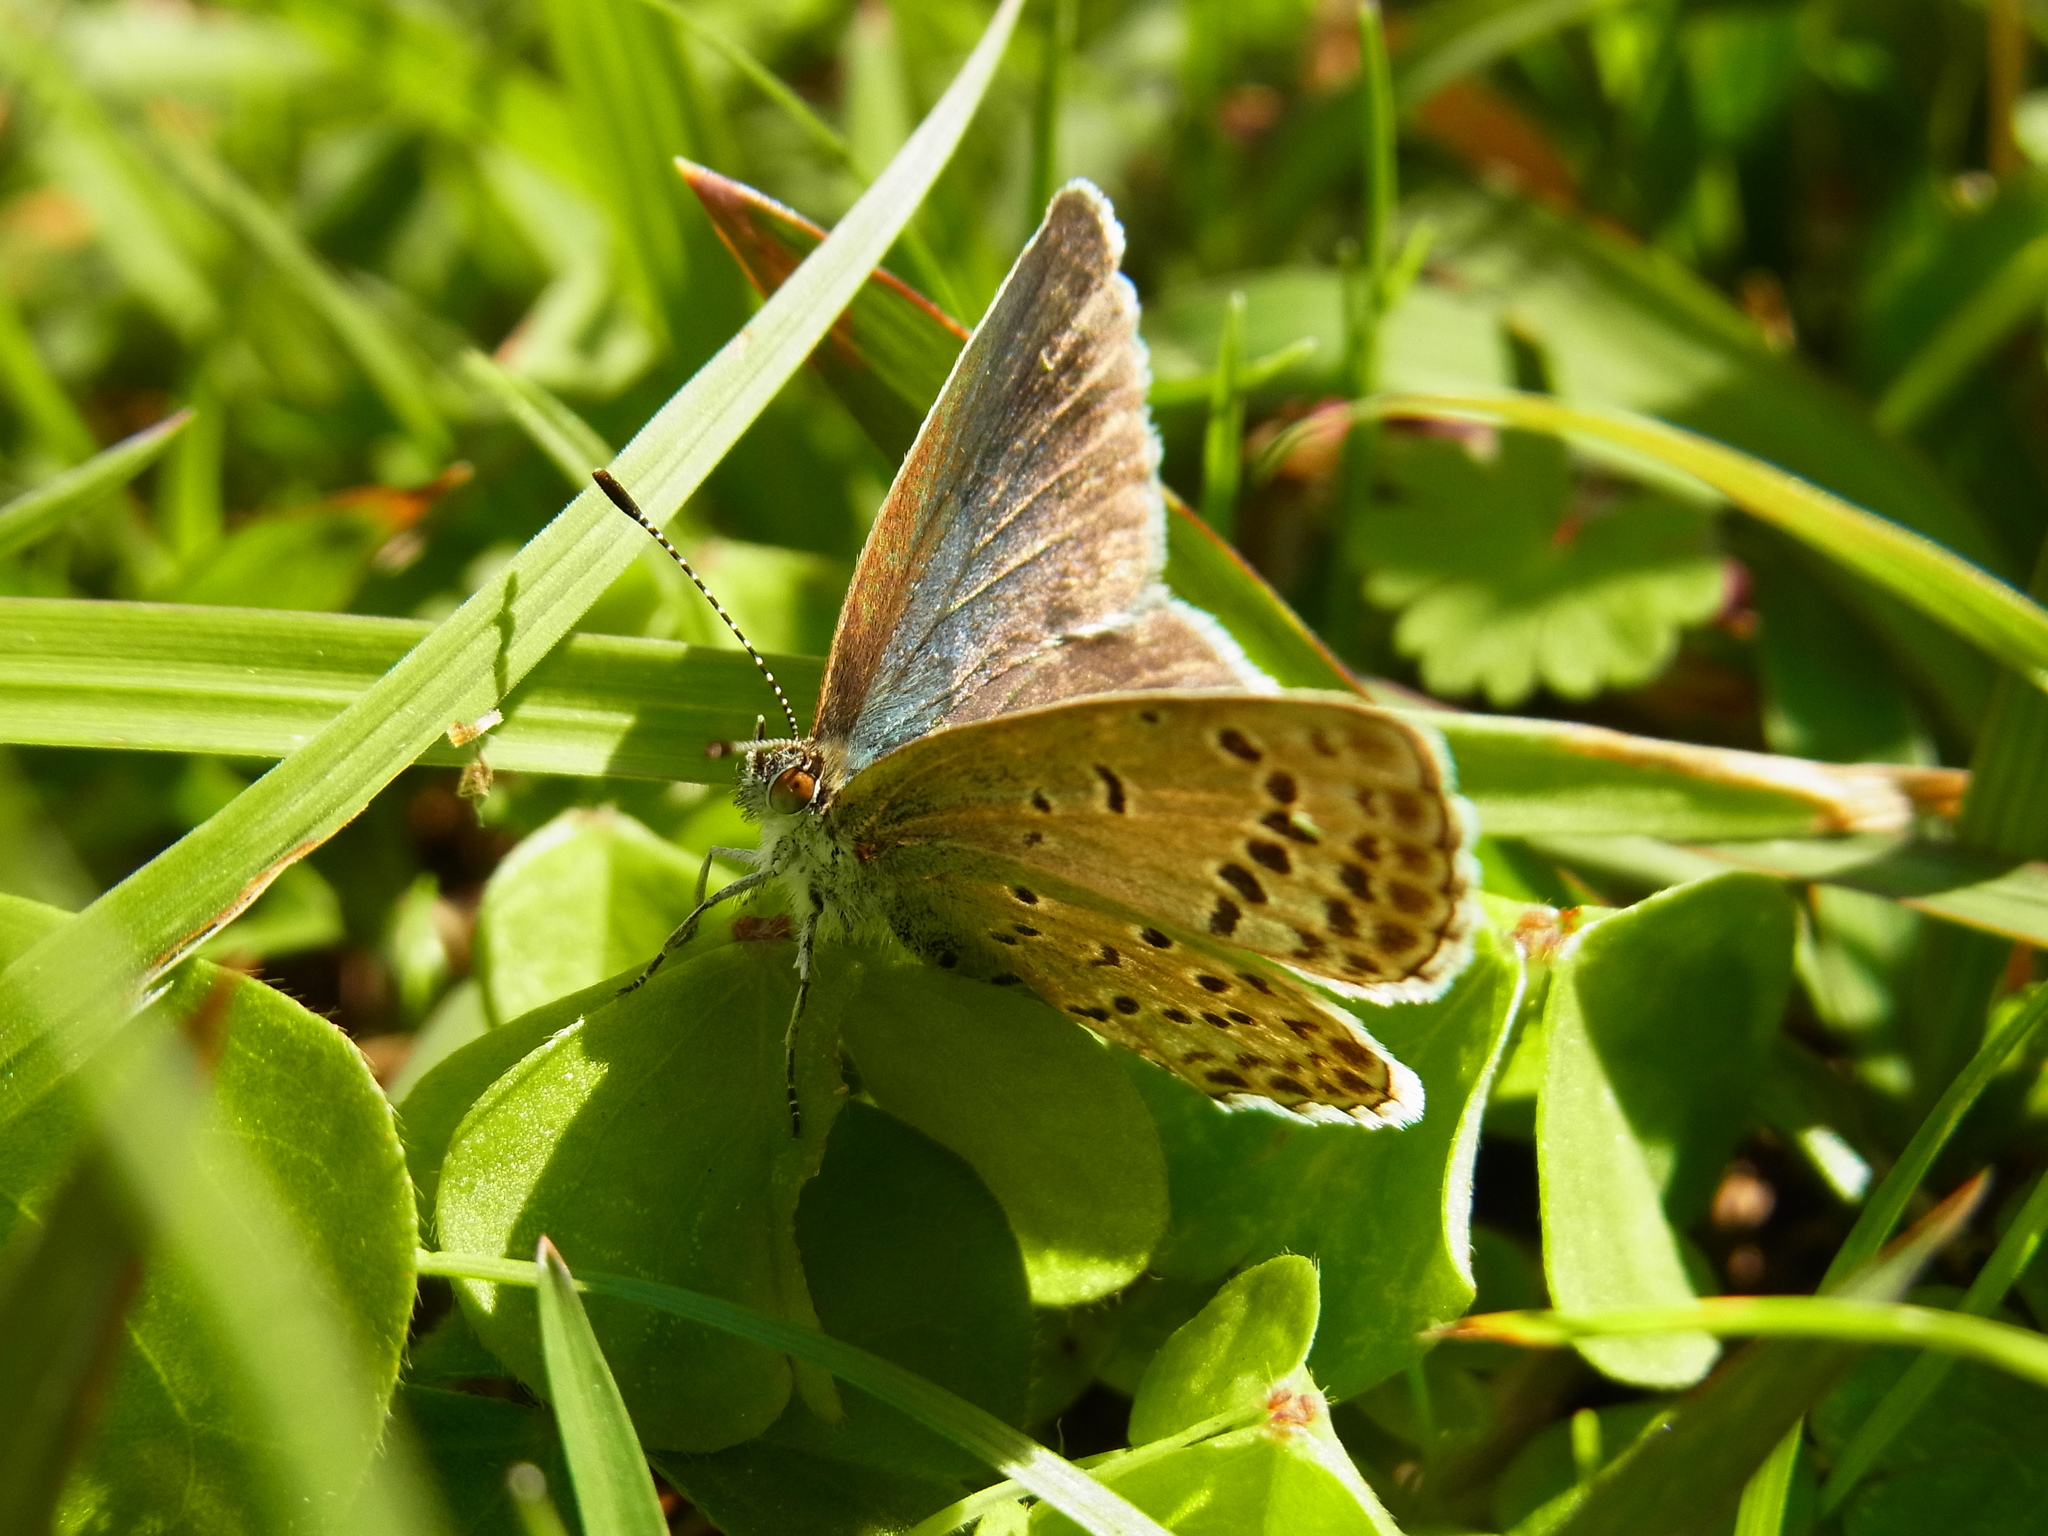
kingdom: Animalia
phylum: Arthropoda
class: Insecta
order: Lepidoptera
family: Lycaenidae
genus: Pseudozizeeria
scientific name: Pseudozizeeria maha
